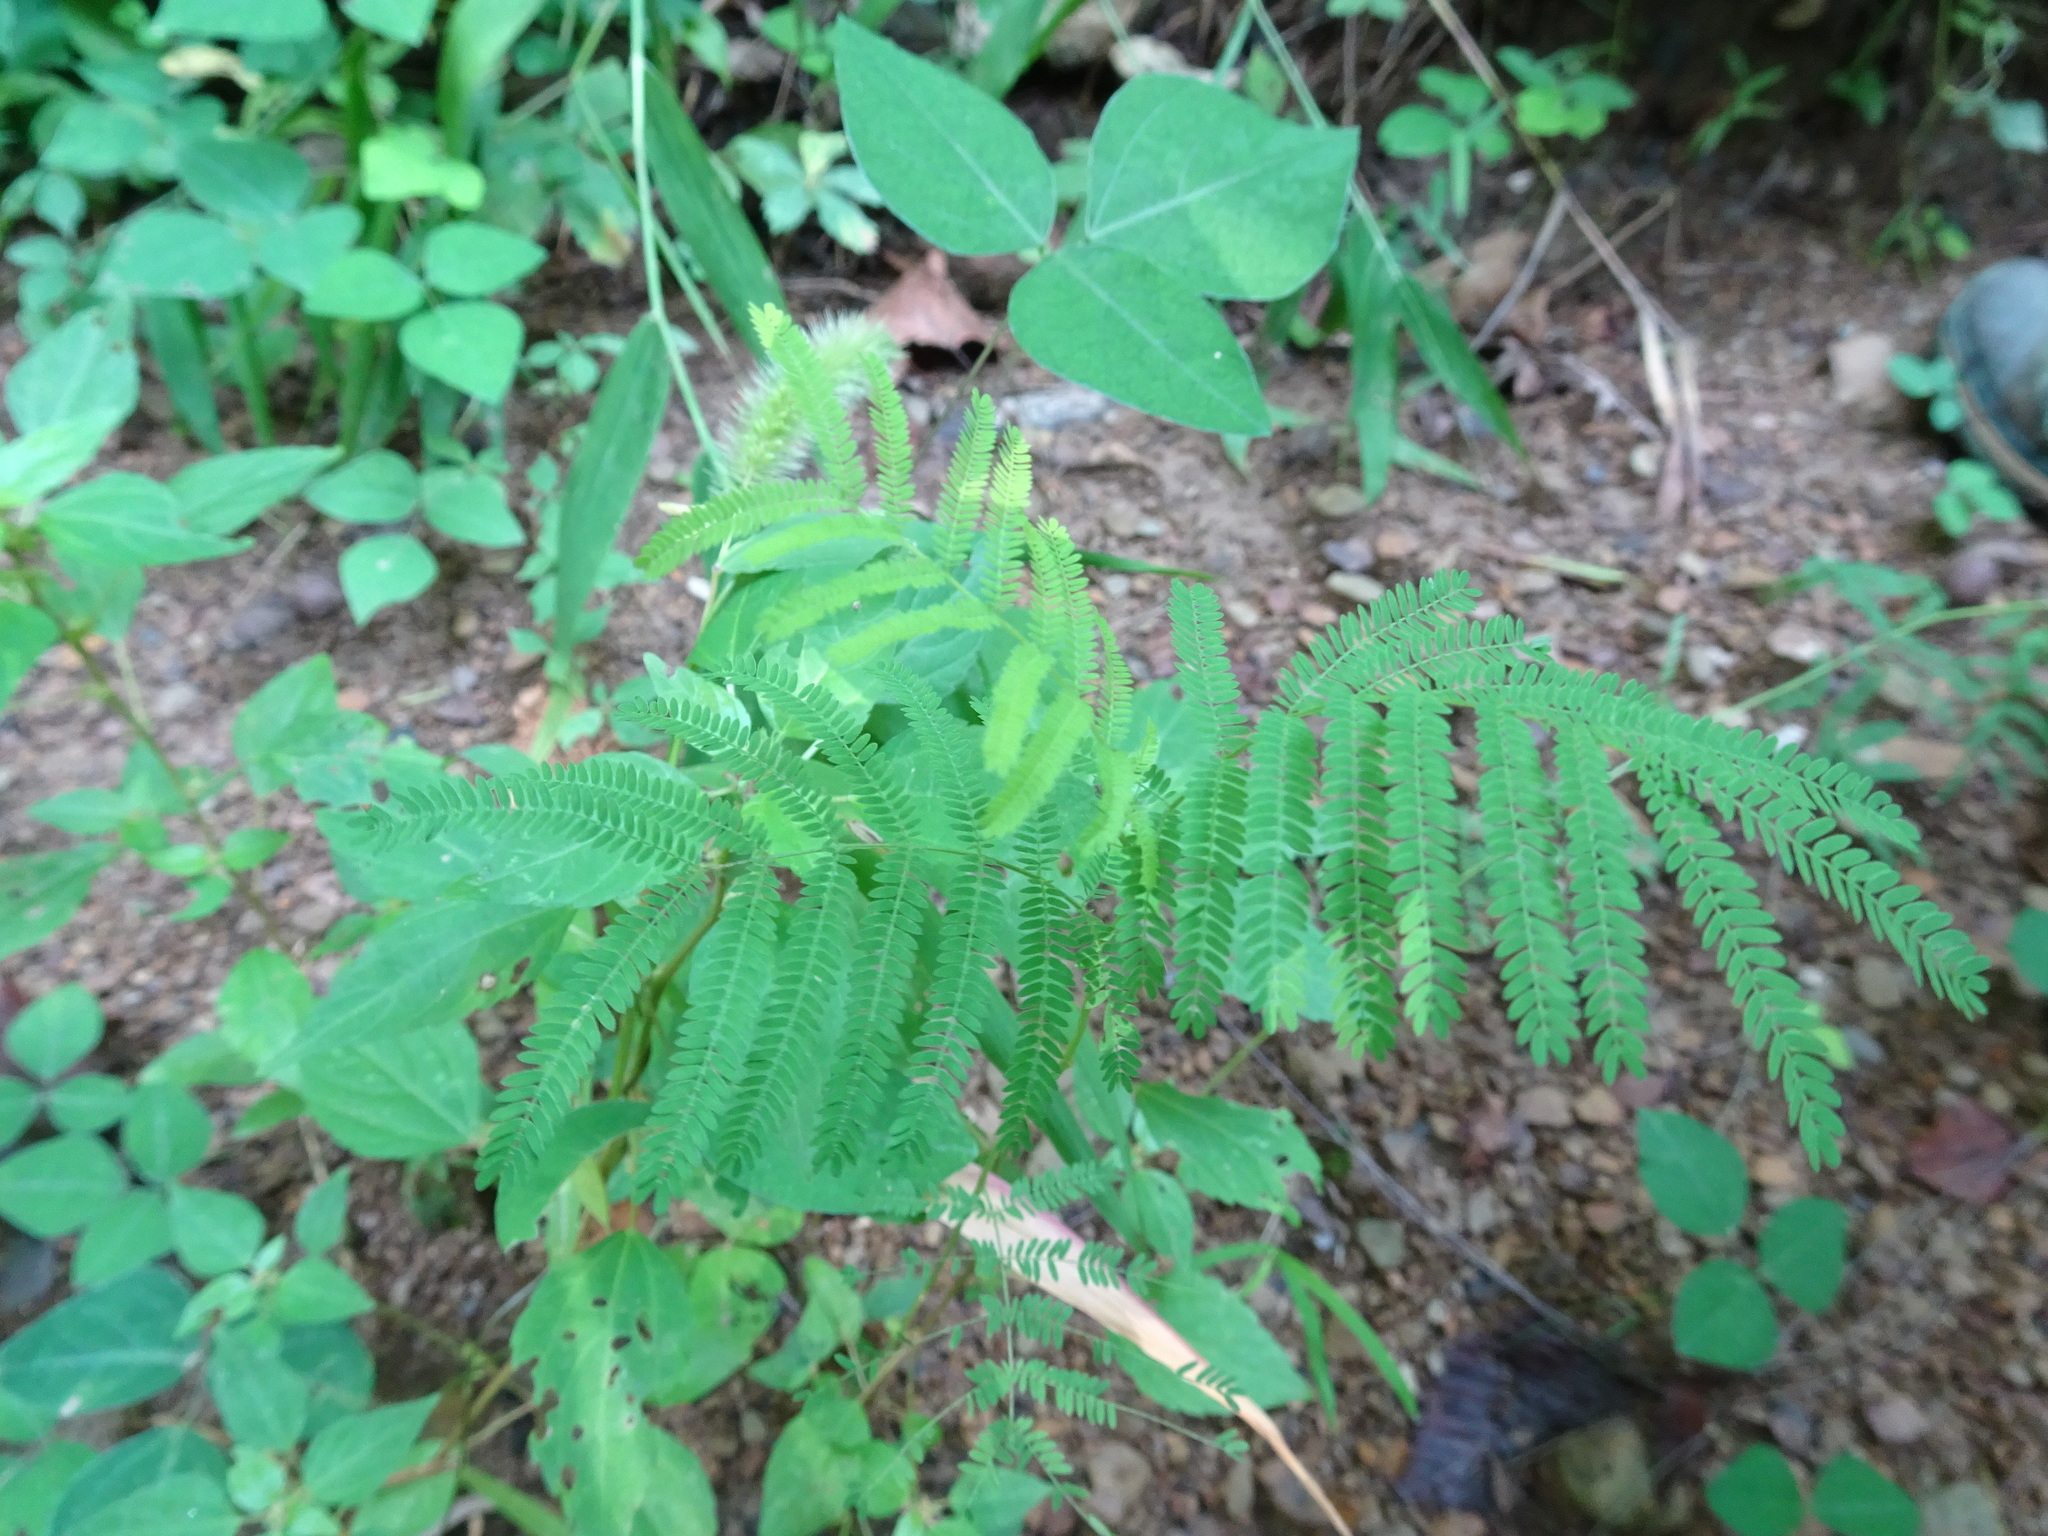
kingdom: Plantae
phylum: Tracheophyta
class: Magnoliopsida
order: Fabales
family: Fabaceae
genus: Desmanthus
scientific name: Desmanthus illinoensis
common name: Illinois bundle-flower
